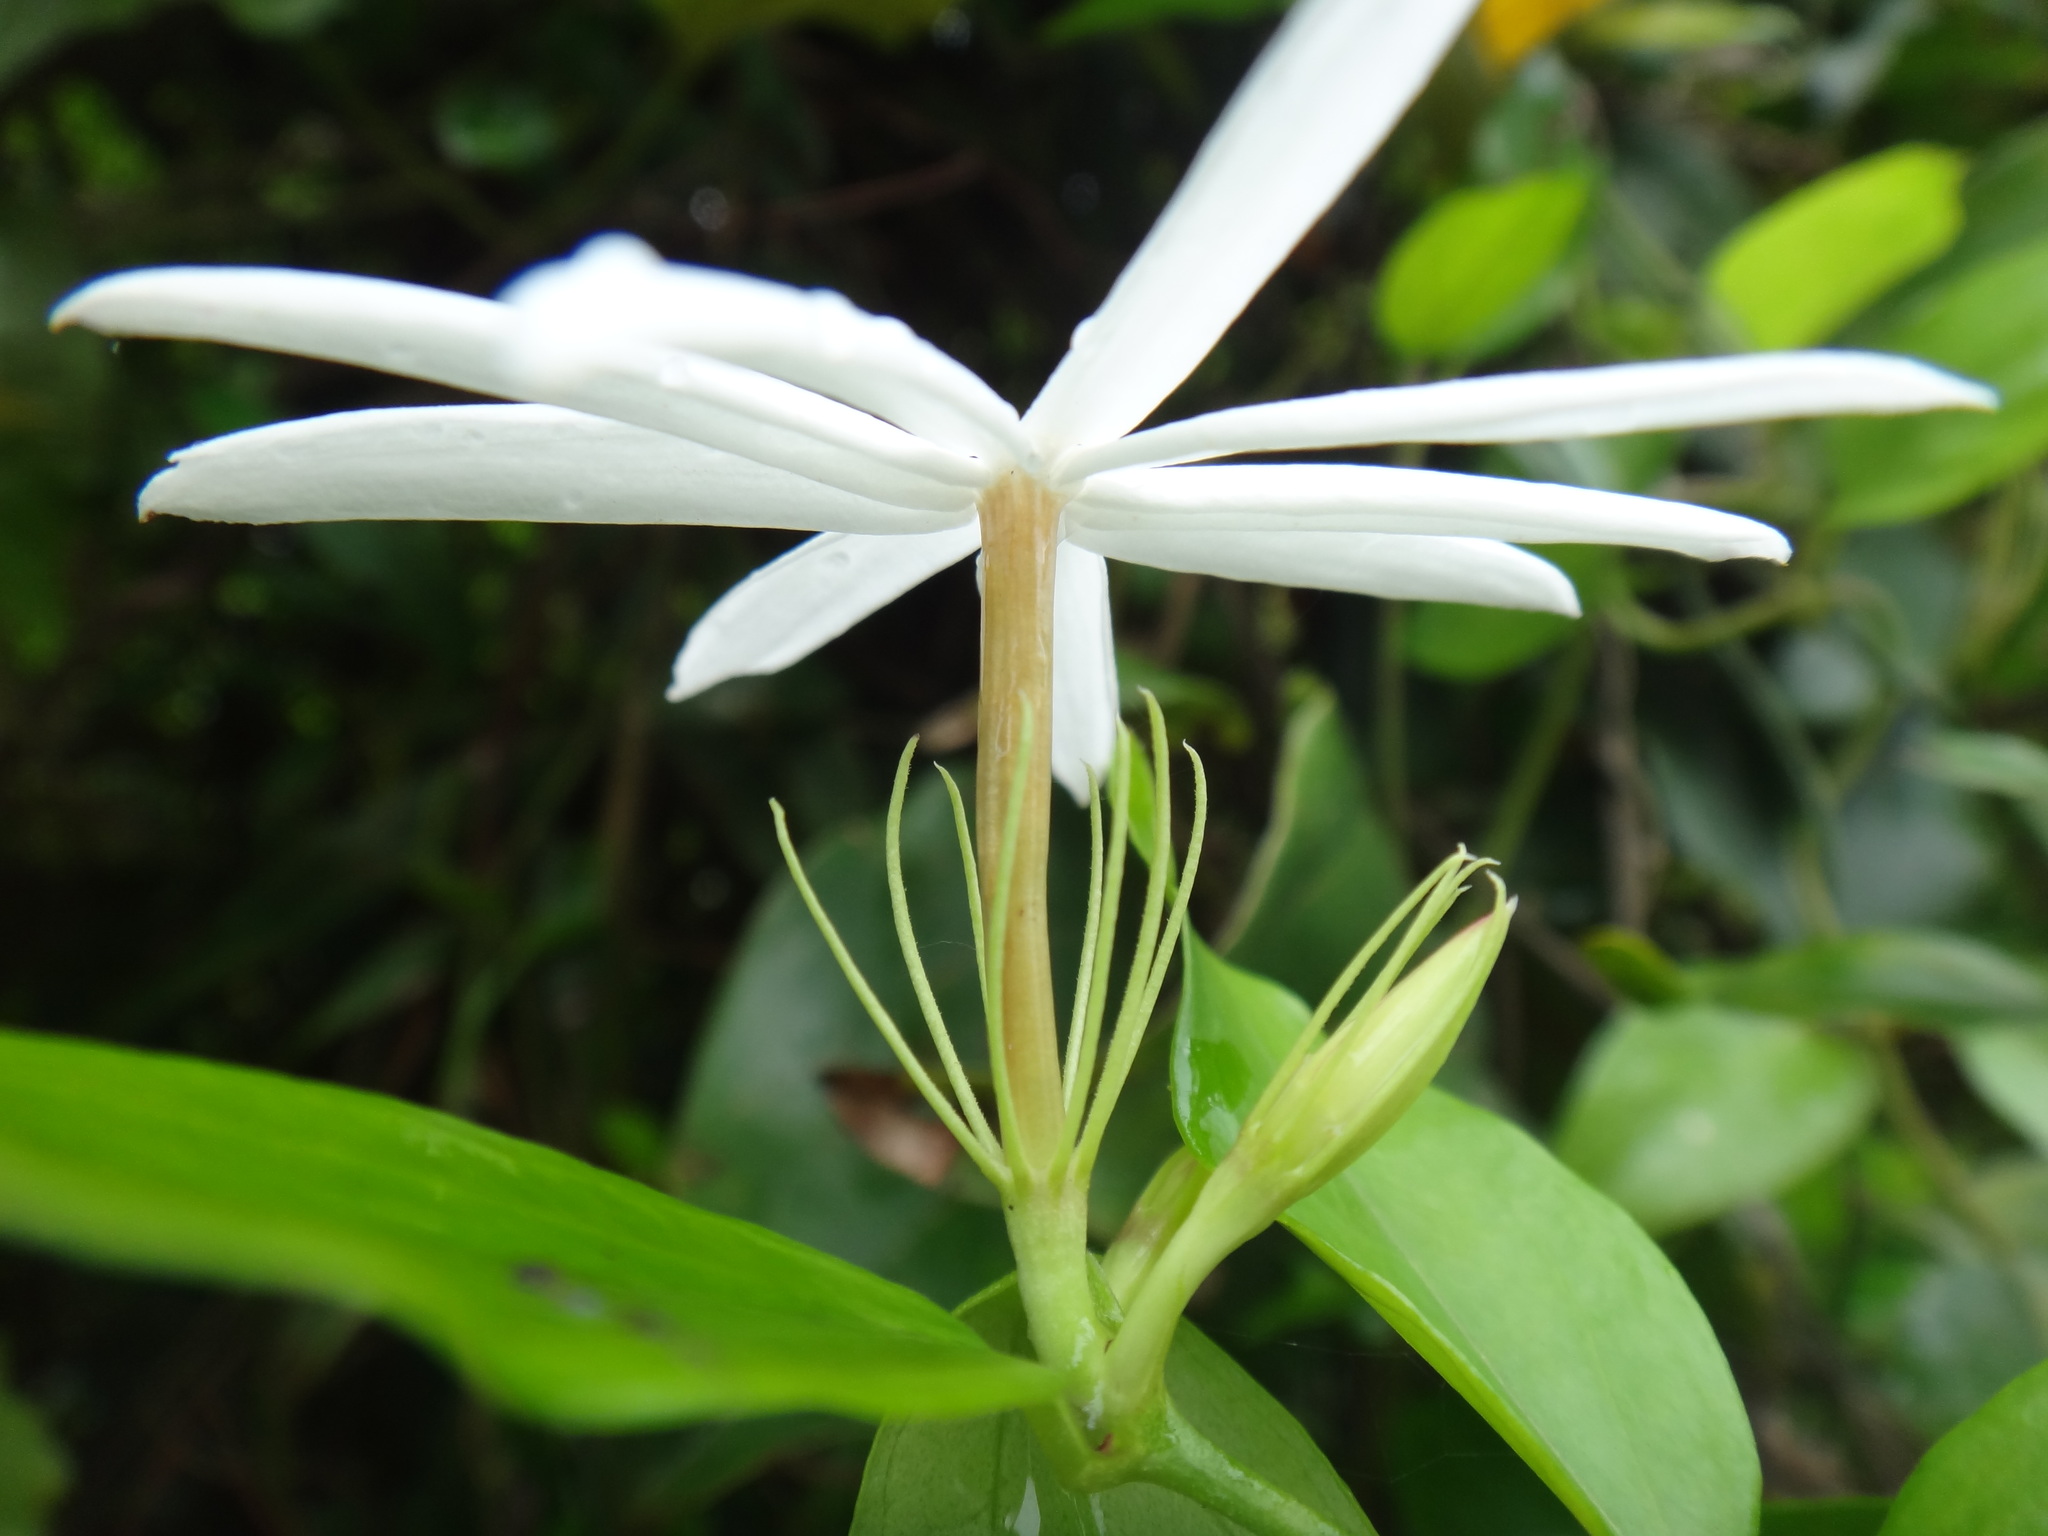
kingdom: Plantae
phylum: Tracheophyta
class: Magnoliopsida
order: Lamiales
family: Oleaceae
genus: Jasminum
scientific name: Jasminum nervosum
